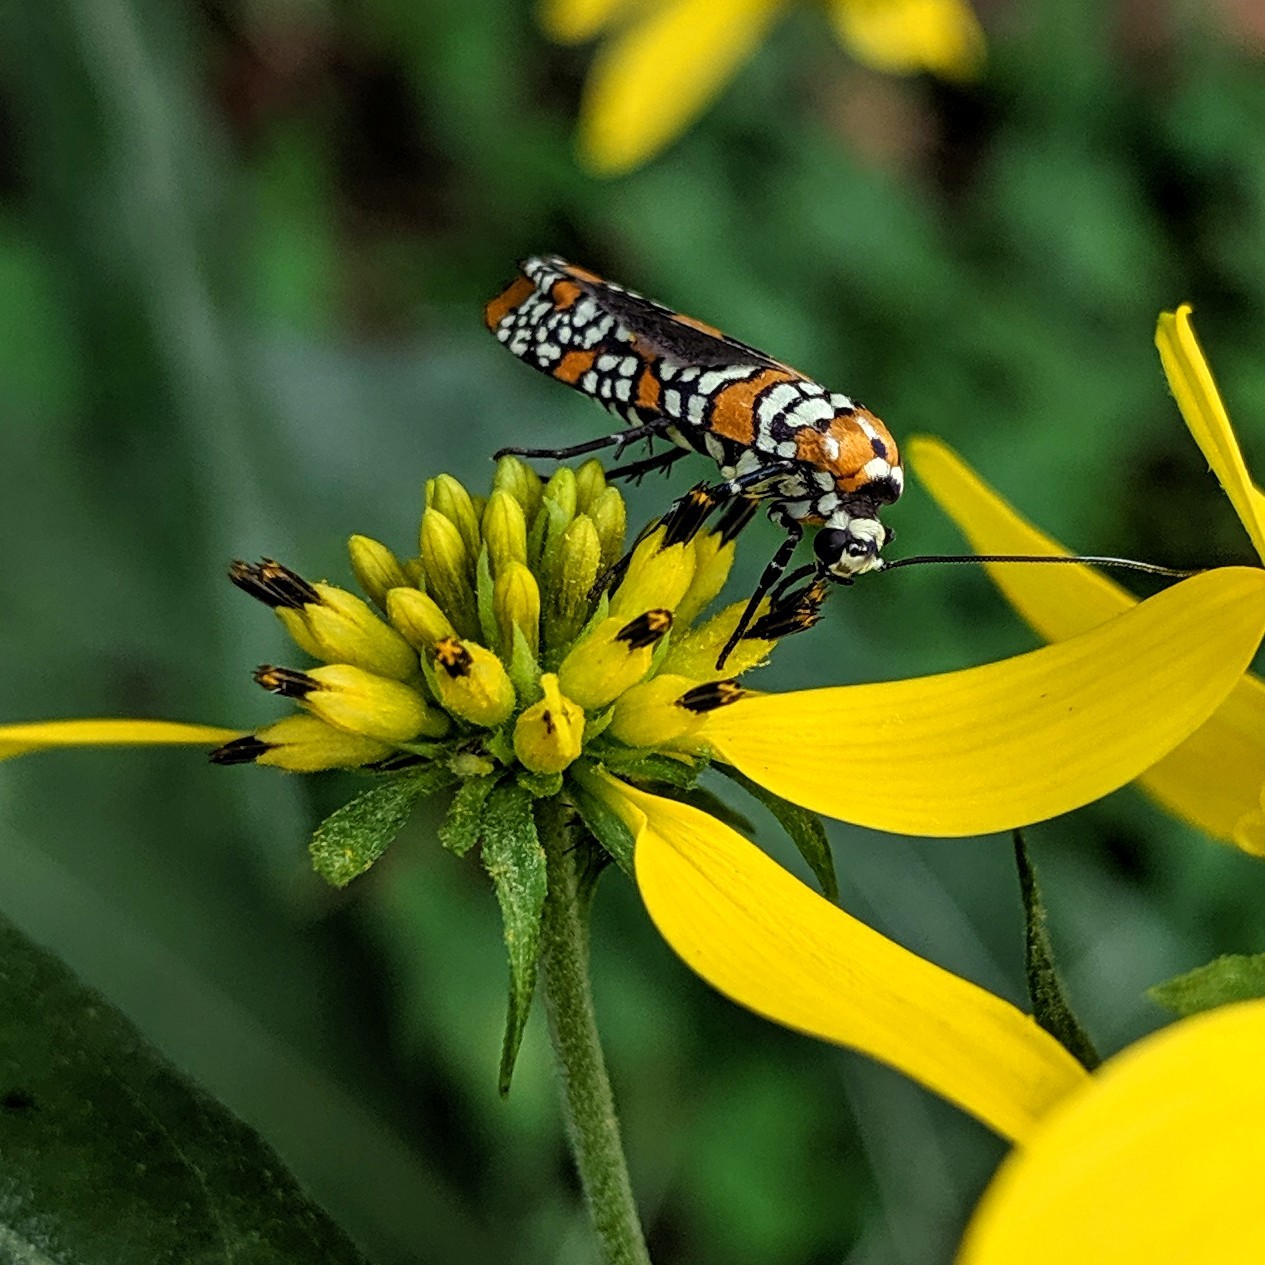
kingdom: Animalia
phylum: Arthropoda
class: Insecta
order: Lepidoptera
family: Attevidae
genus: Atteva
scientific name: Atteva punctella
